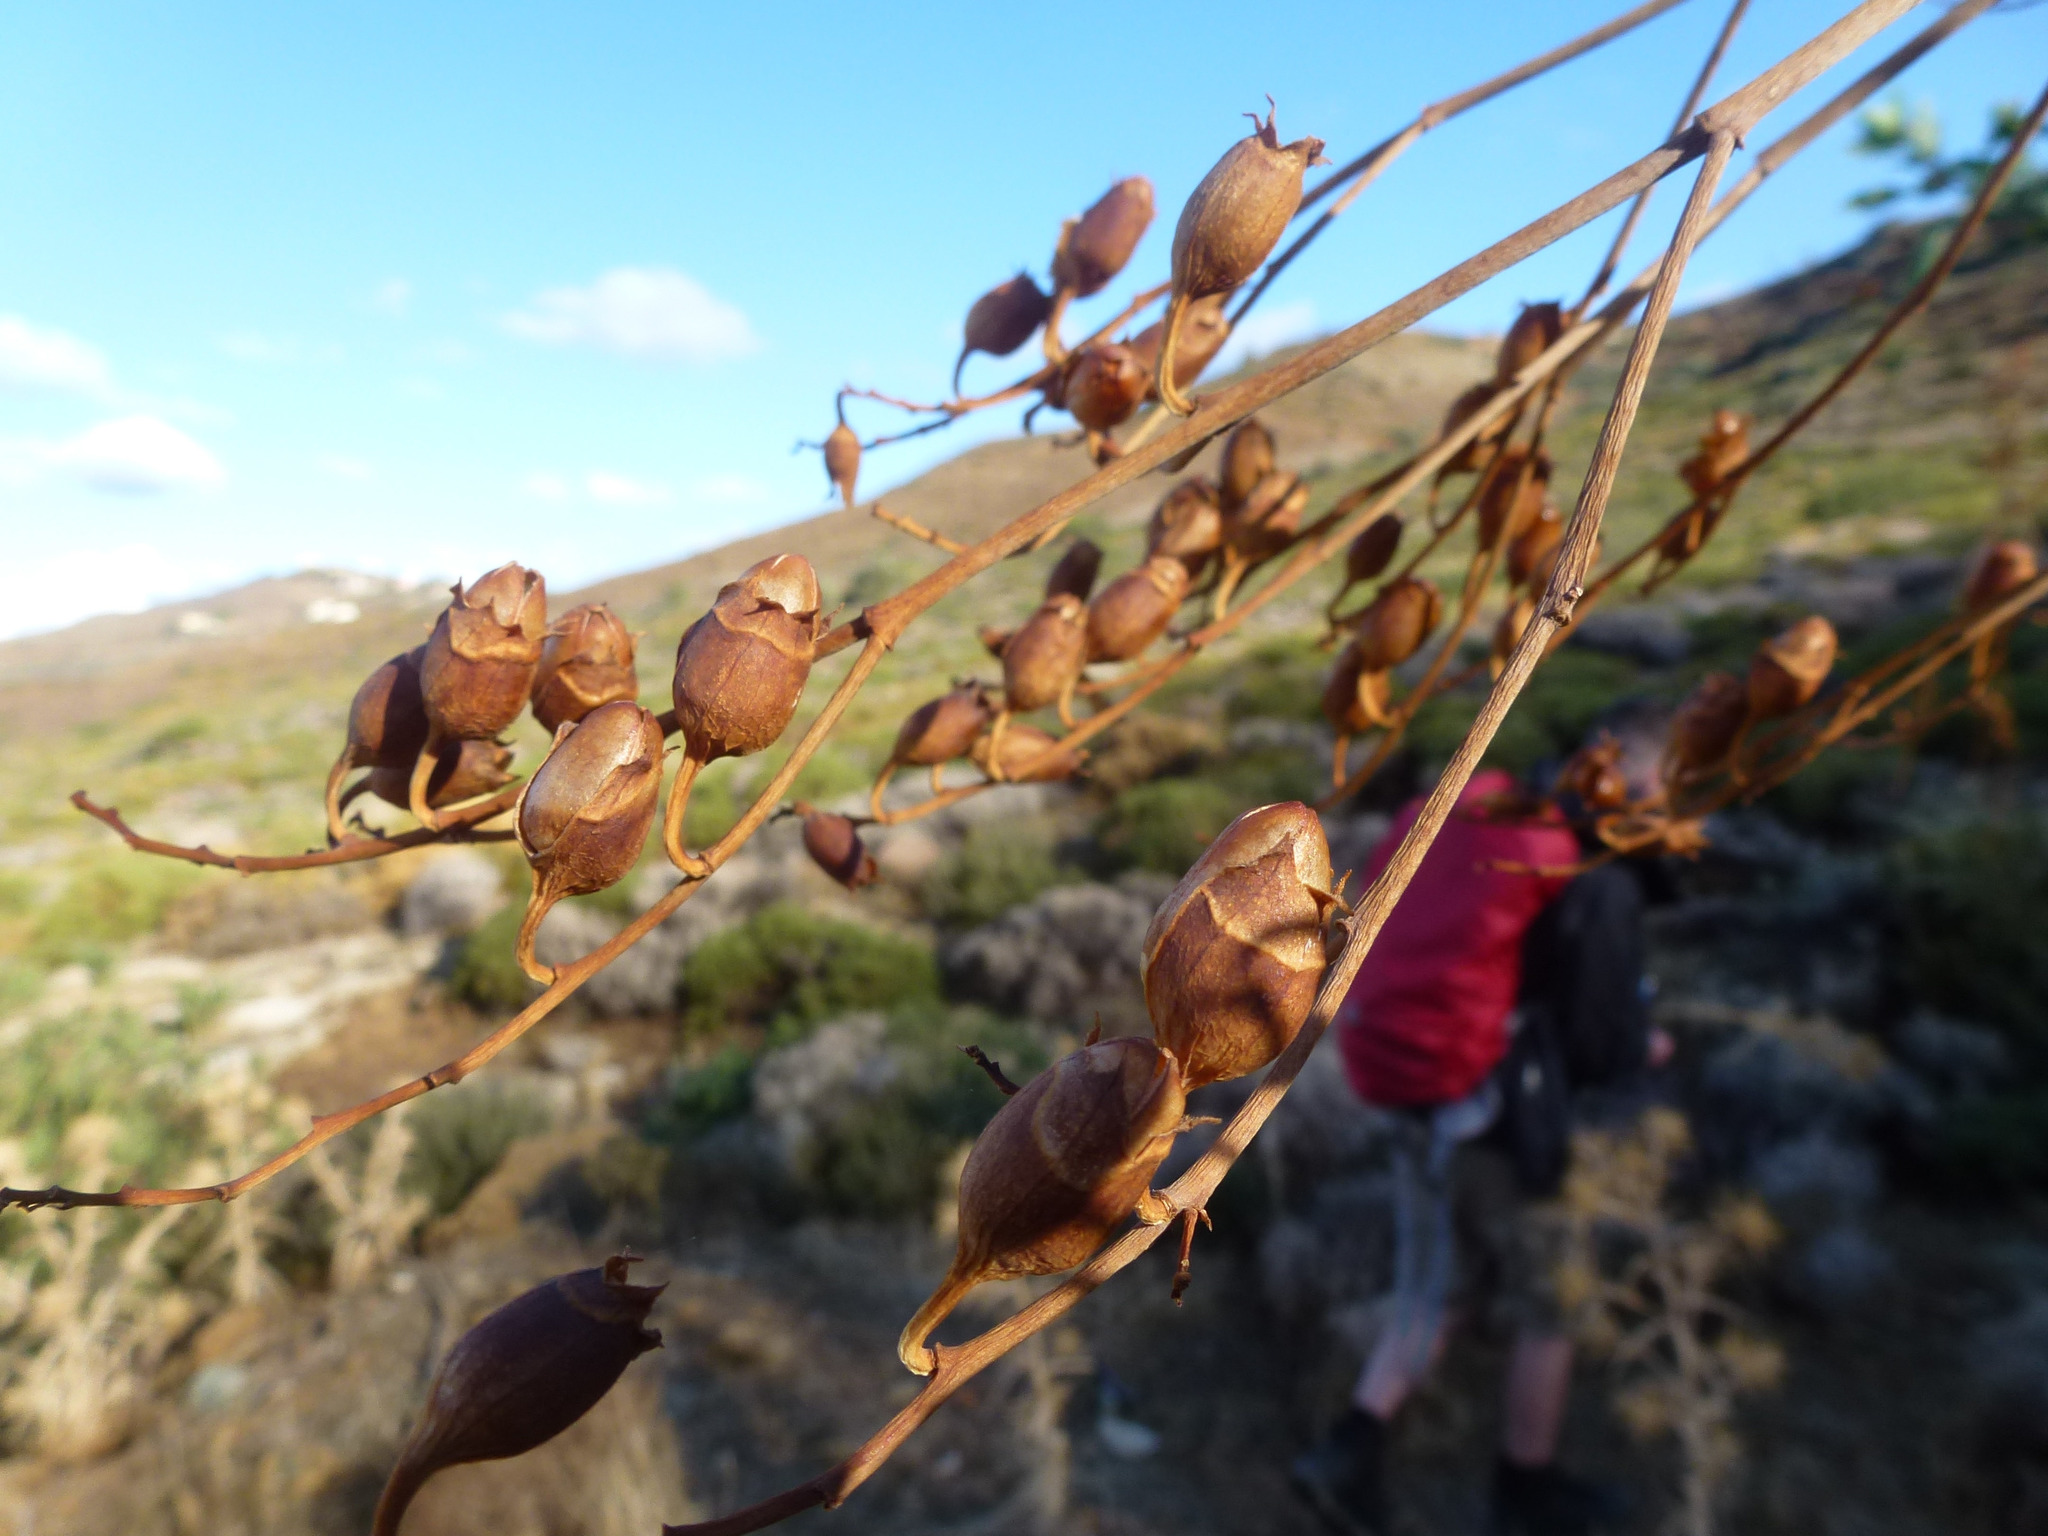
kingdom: Plantae
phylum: Tracheophyta
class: Magnoliopsida
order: Solanales
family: Solanaceae
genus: Nicotiana
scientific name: Nicotiana glauca
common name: Tree tobacco
